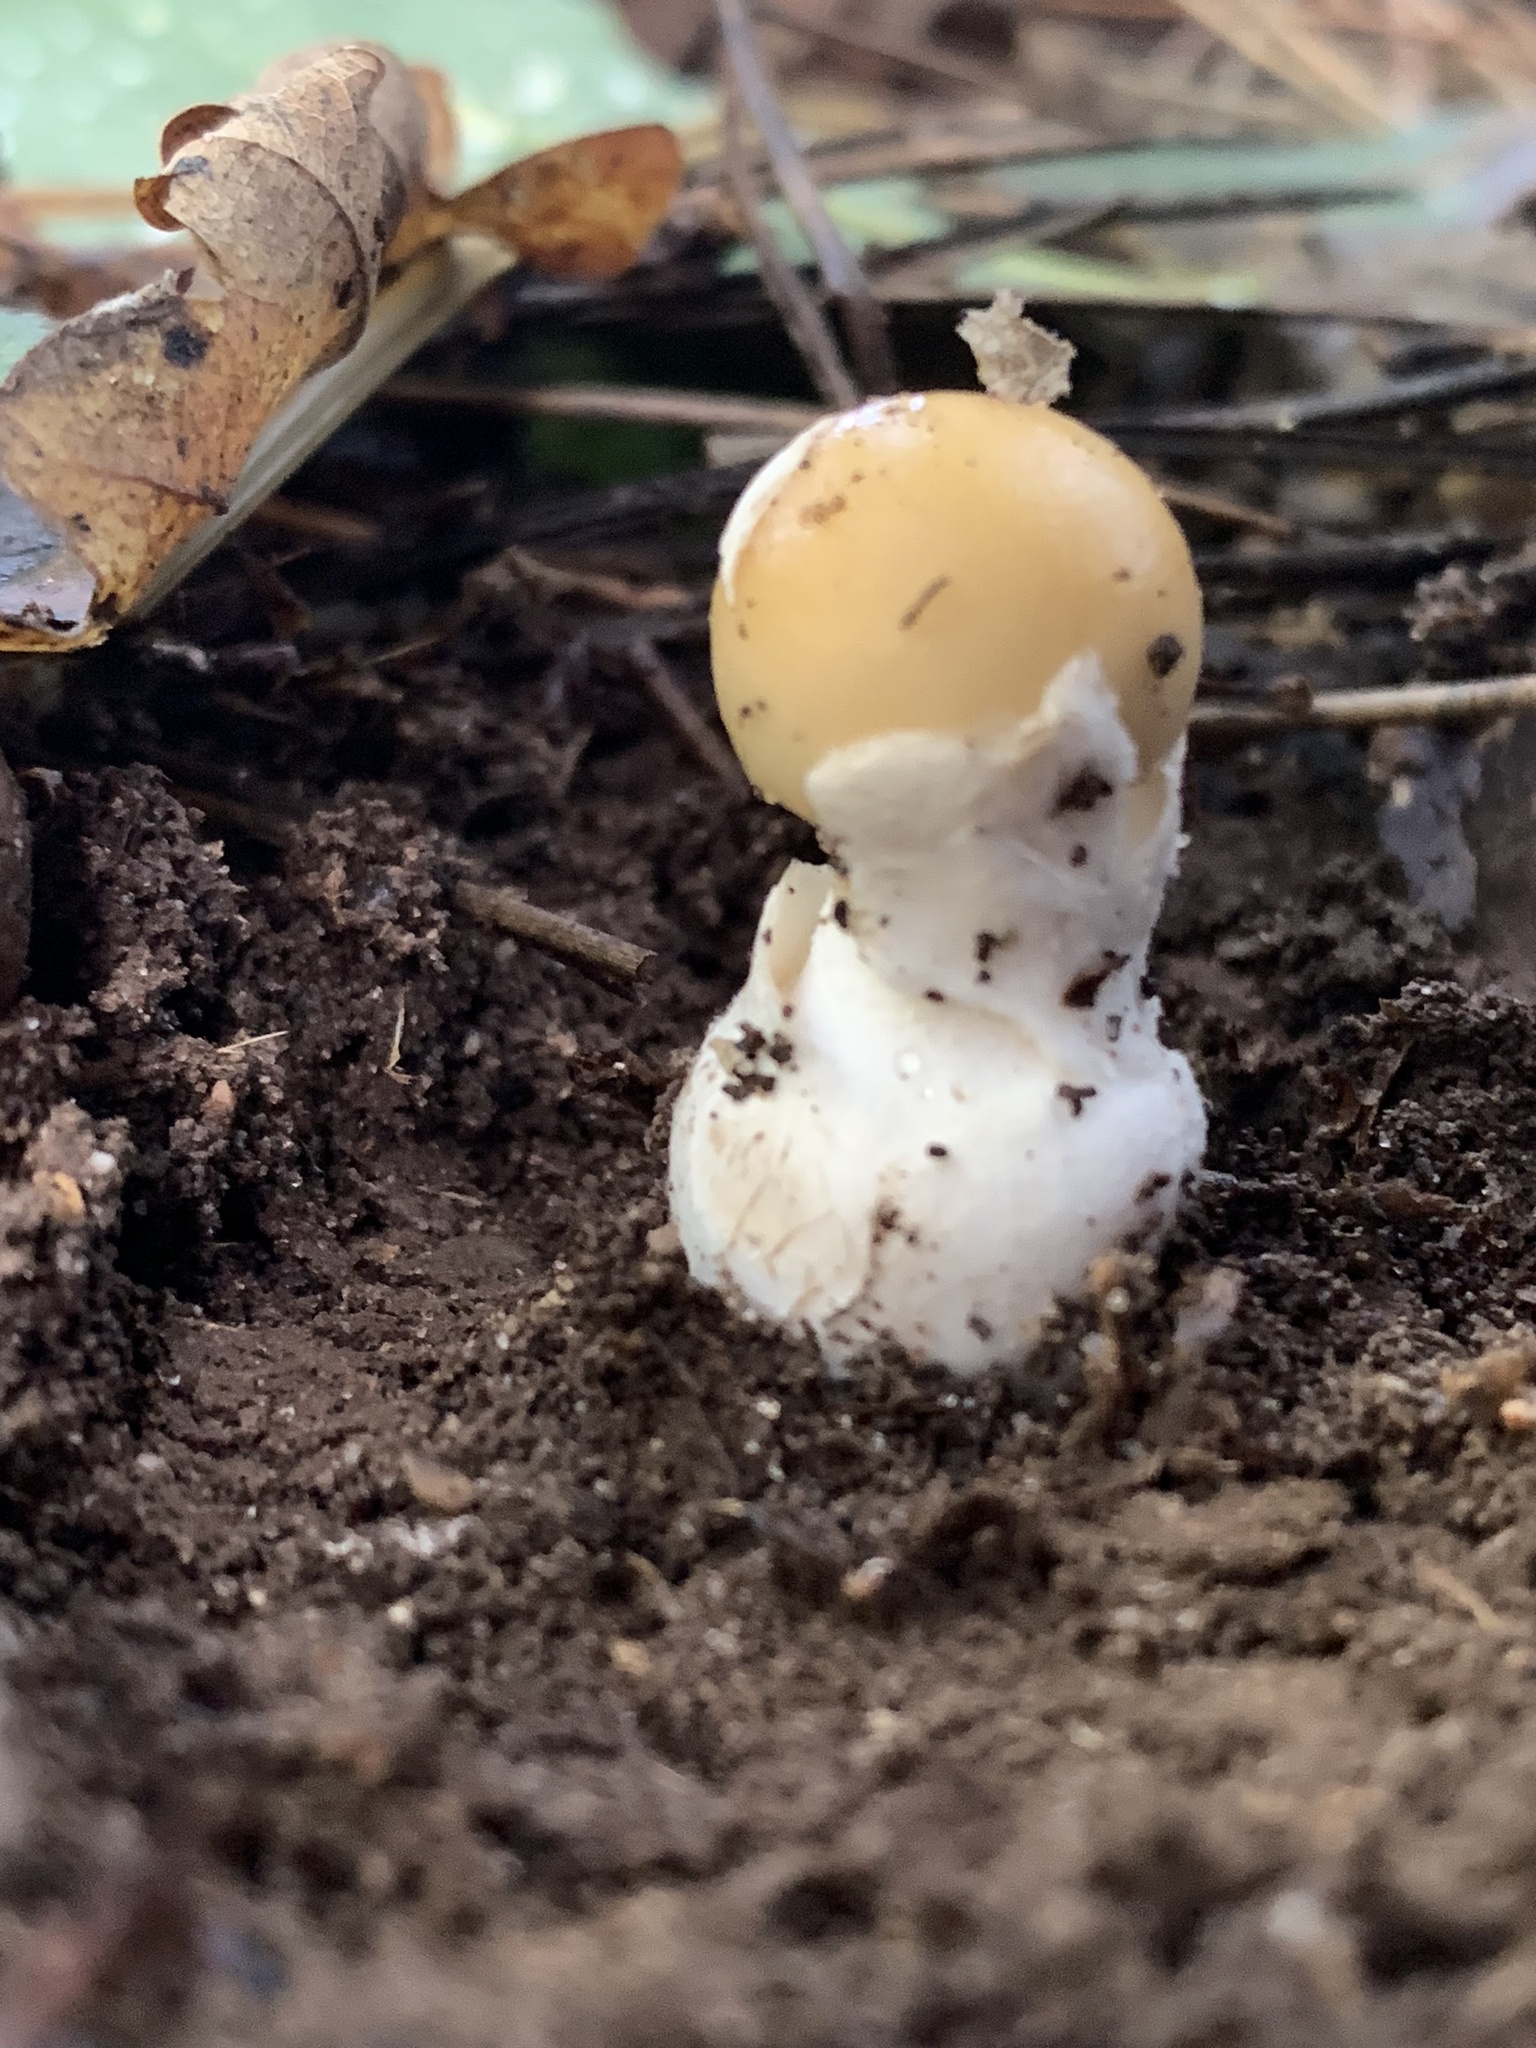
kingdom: Fungi
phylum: Basidiomycota
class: Agaricomycetes
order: Agaricales
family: Amanitaceae
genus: Amanita
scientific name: Amanita gemmata
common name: Jewelled amanita
